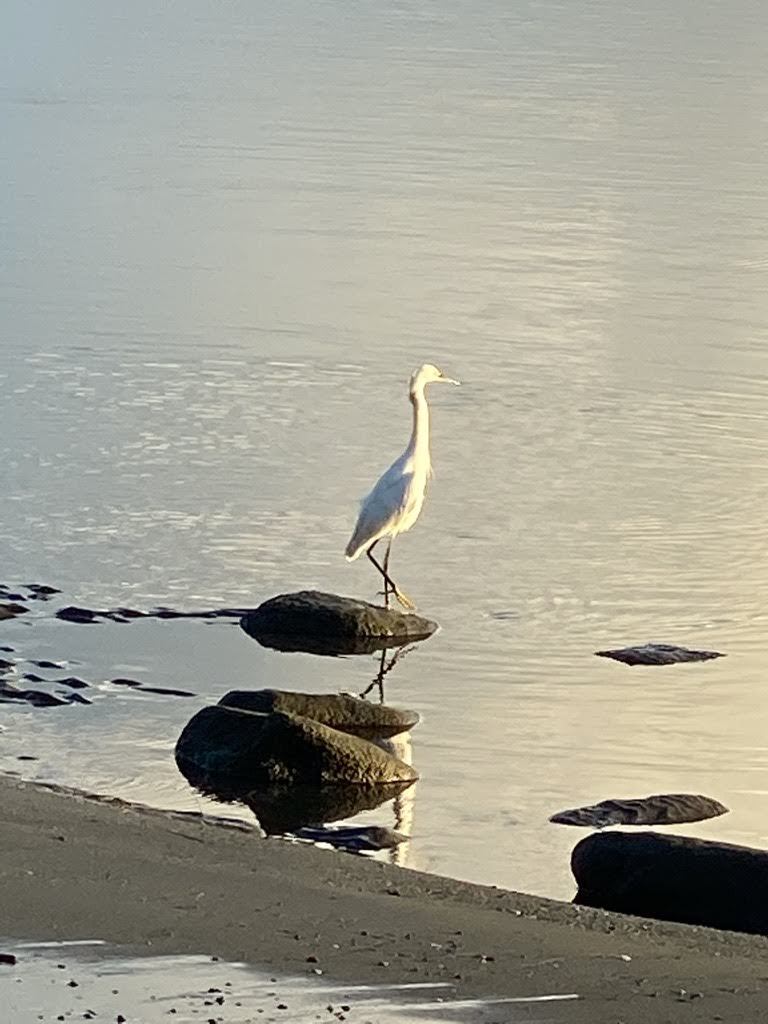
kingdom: Animalia
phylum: Chordata
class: Aves
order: Pelecaniformes
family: Ardeidae
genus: Egretta
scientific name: Egretta thula
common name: Snowy egret
